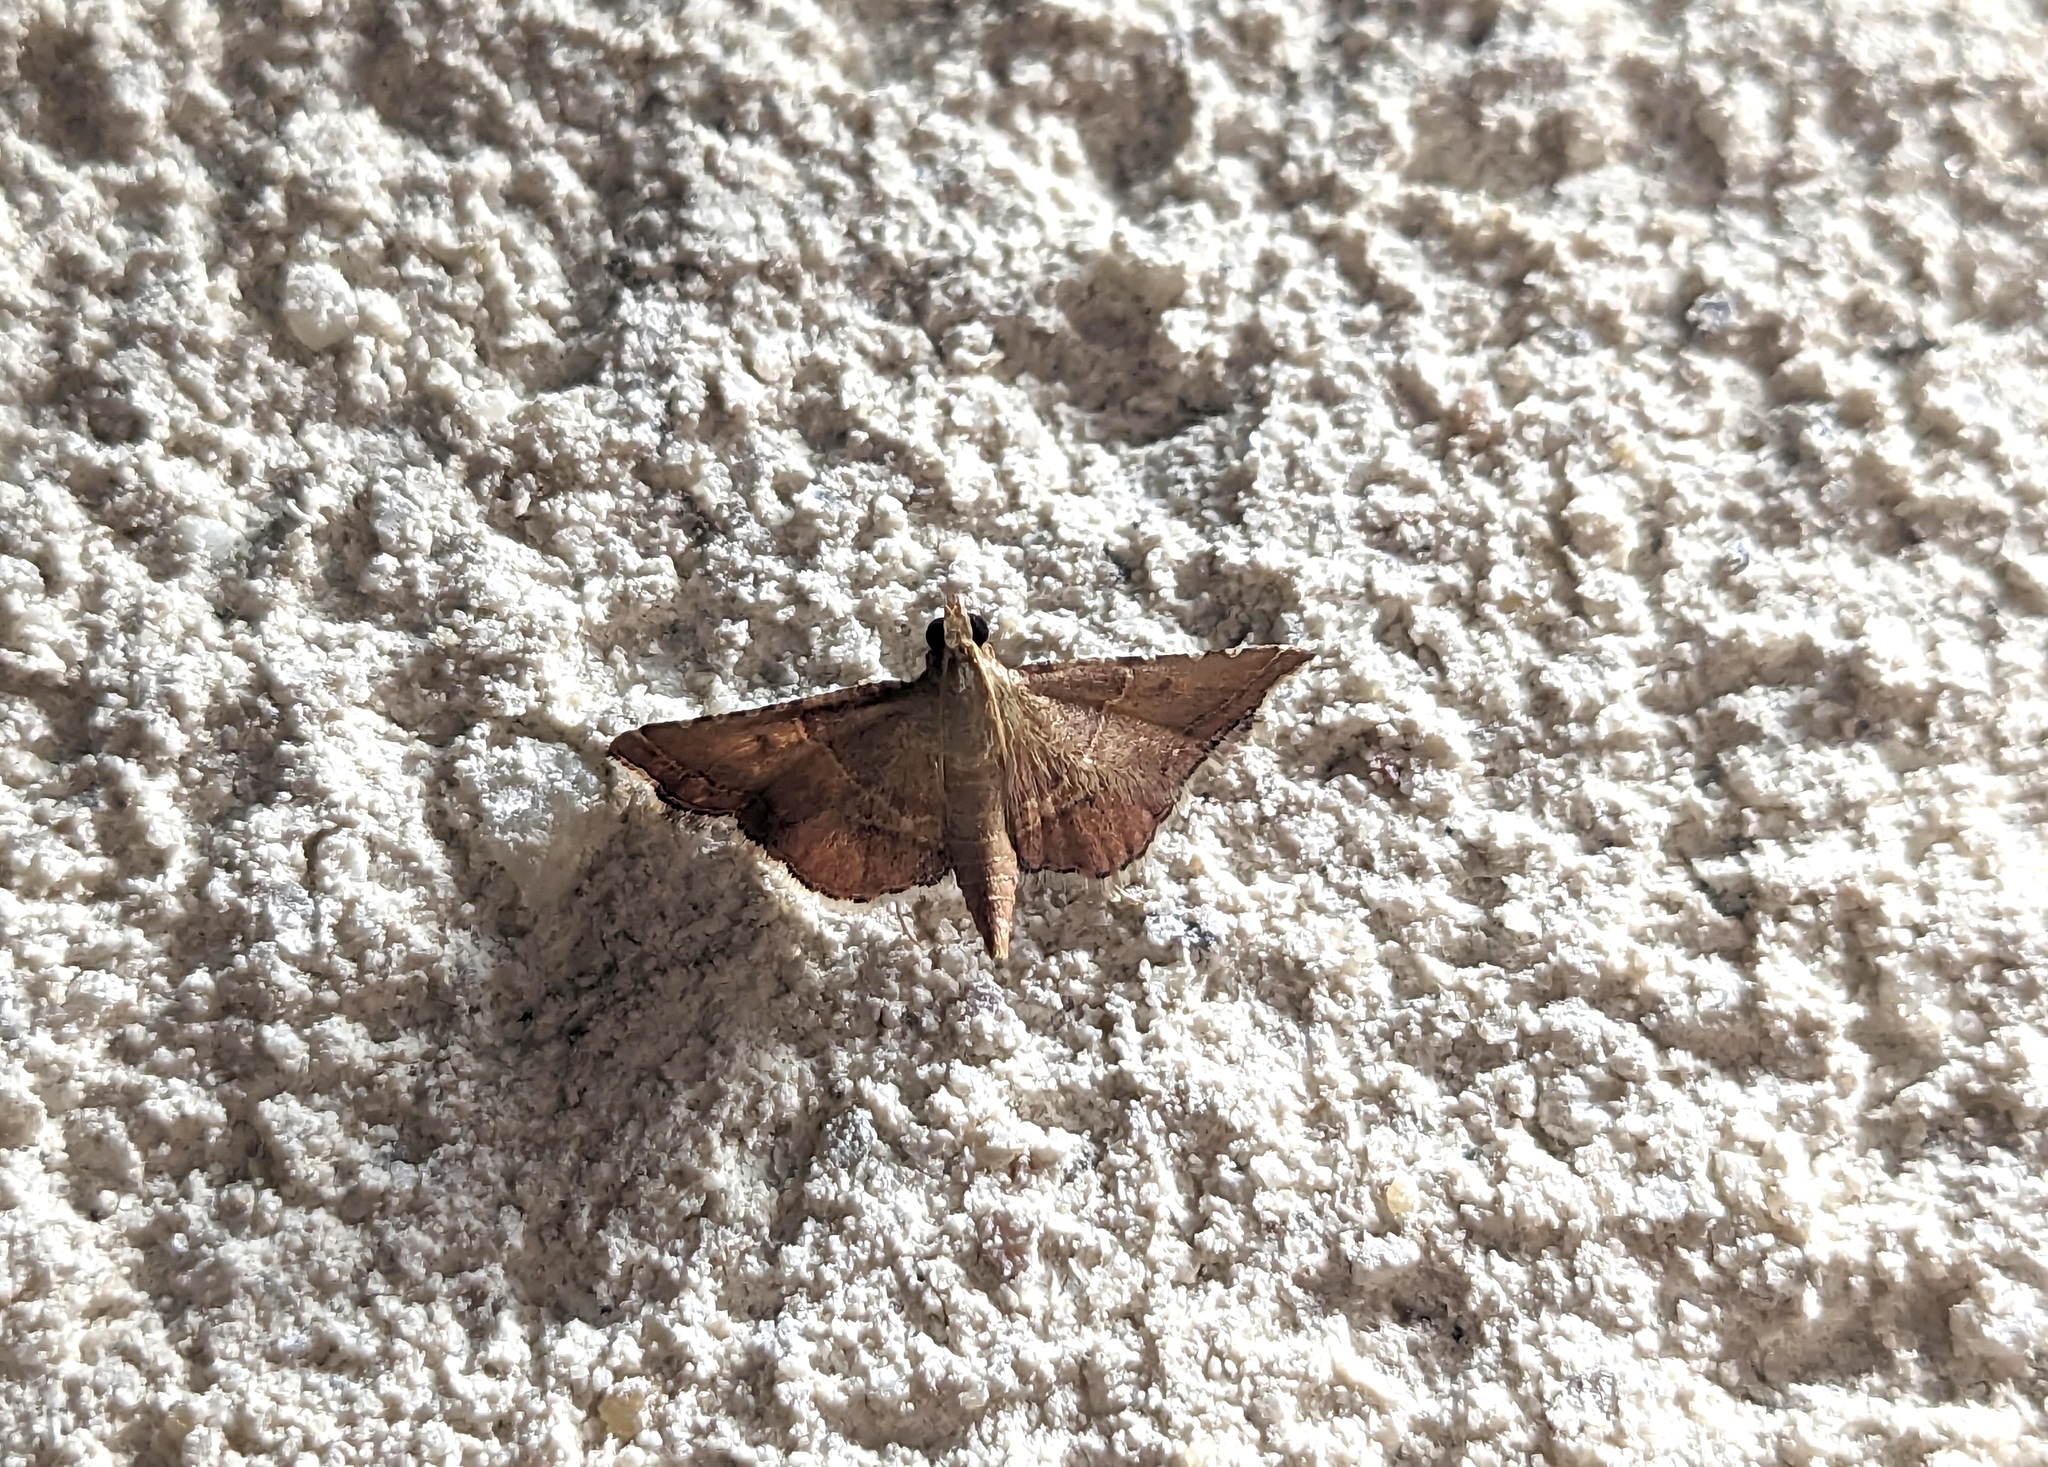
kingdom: Animalia
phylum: Arthropoda
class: Insecta
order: Lepidoptera
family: Pyralidae
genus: Endotricha
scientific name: Endotricha flammealis
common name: Rosy tabby
